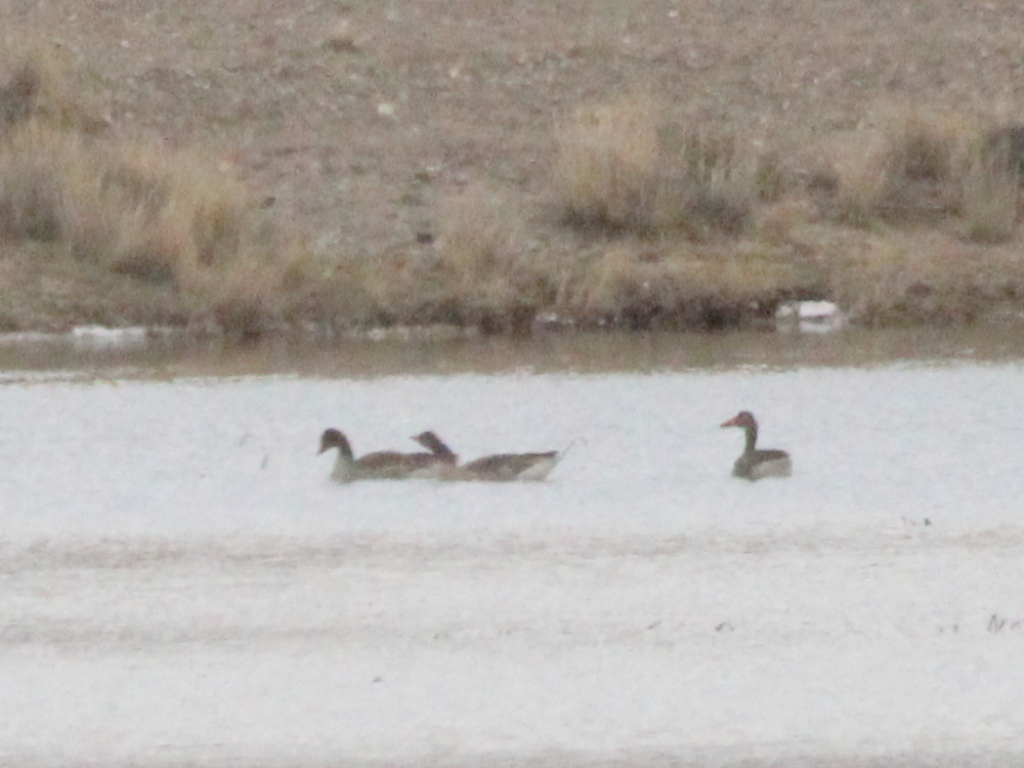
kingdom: Animalia
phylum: Chordata
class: Aves
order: Anseriformes
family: Anatidae
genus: Anser
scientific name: Anser anser
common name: Greylag goose
